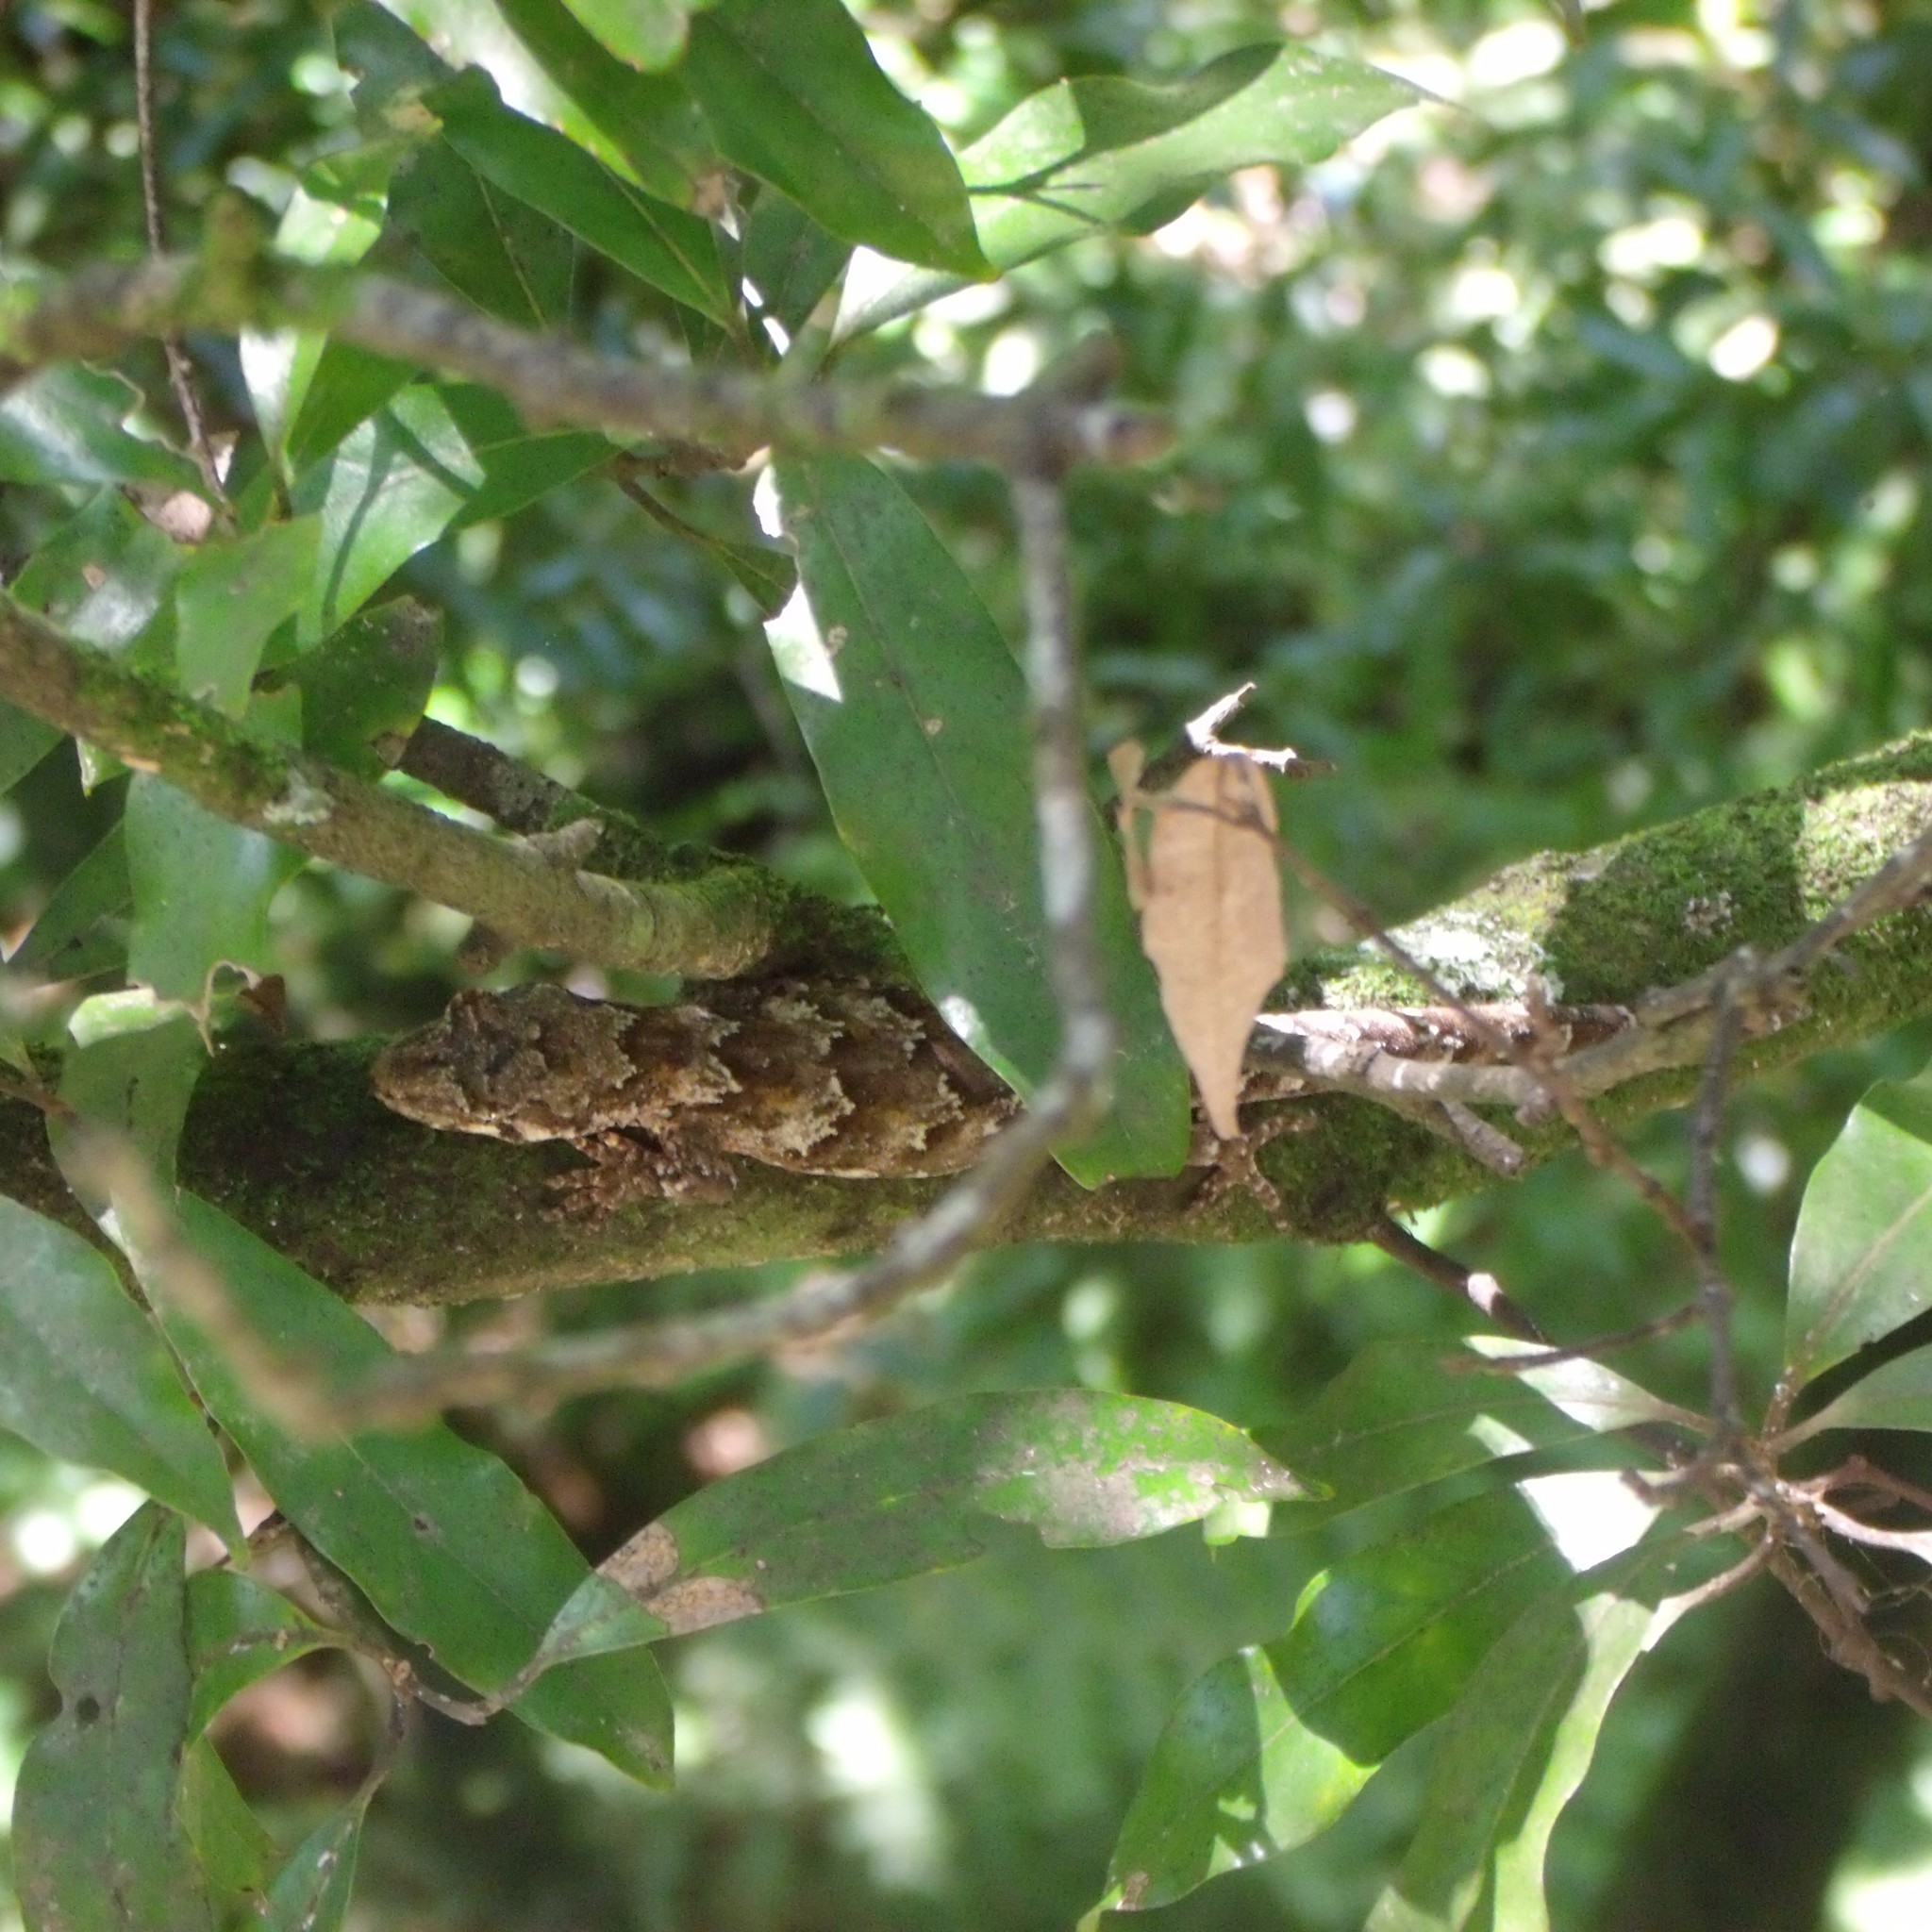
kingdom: Animalia
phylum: Chordata
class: Squamata
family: Diplodactylidae
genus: Mokopirirakau
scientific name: Mokopirirakau
